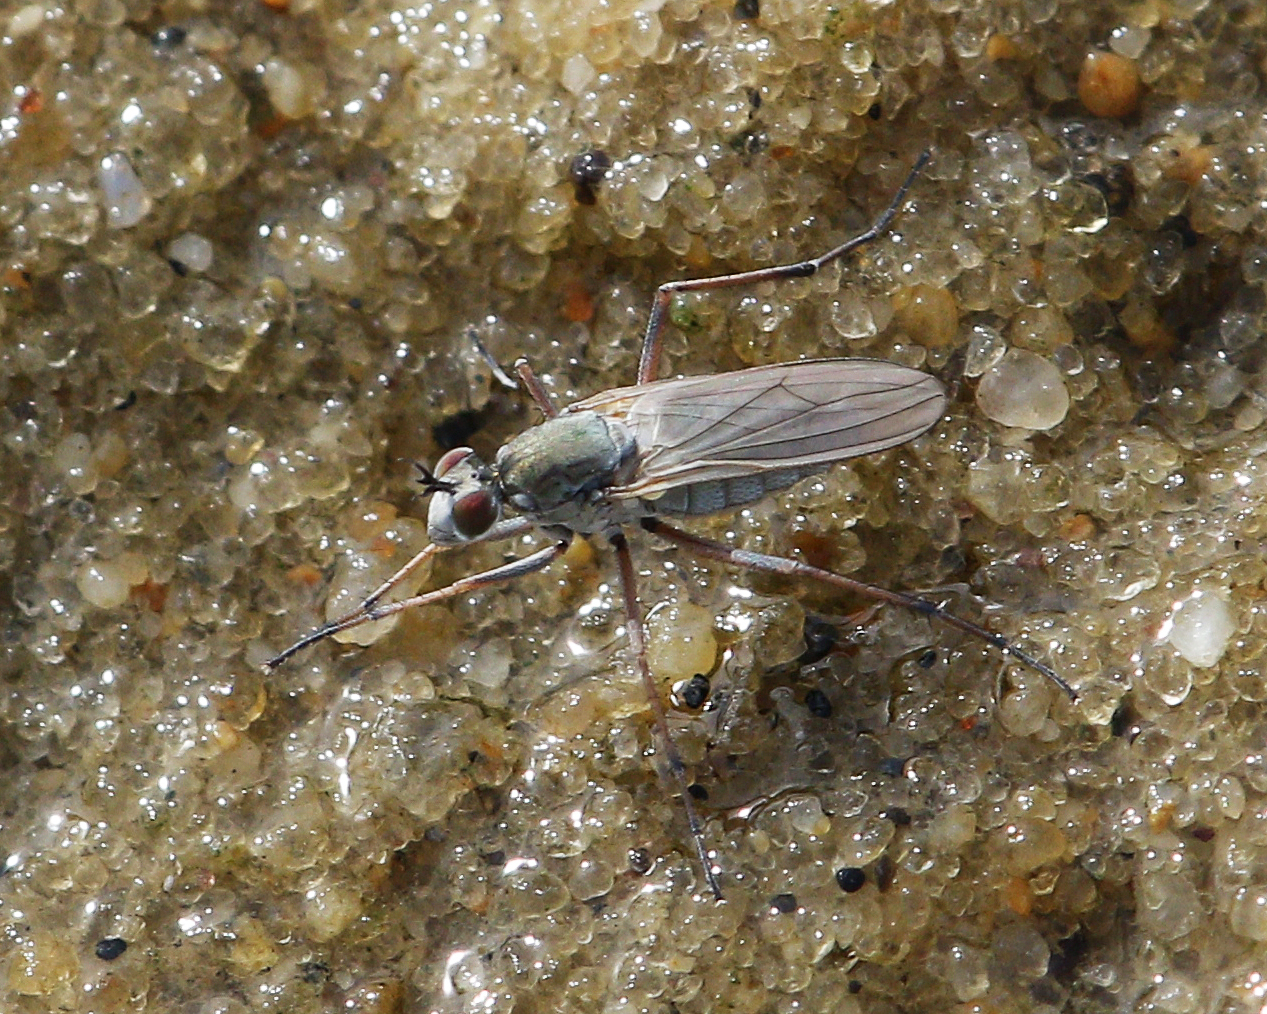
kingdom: Animalia
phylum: Arthropoda
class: Insecta
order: Diptera
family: Dolichopodidae
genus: Hypocharassus
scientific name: Hypocharassus pruinosus
